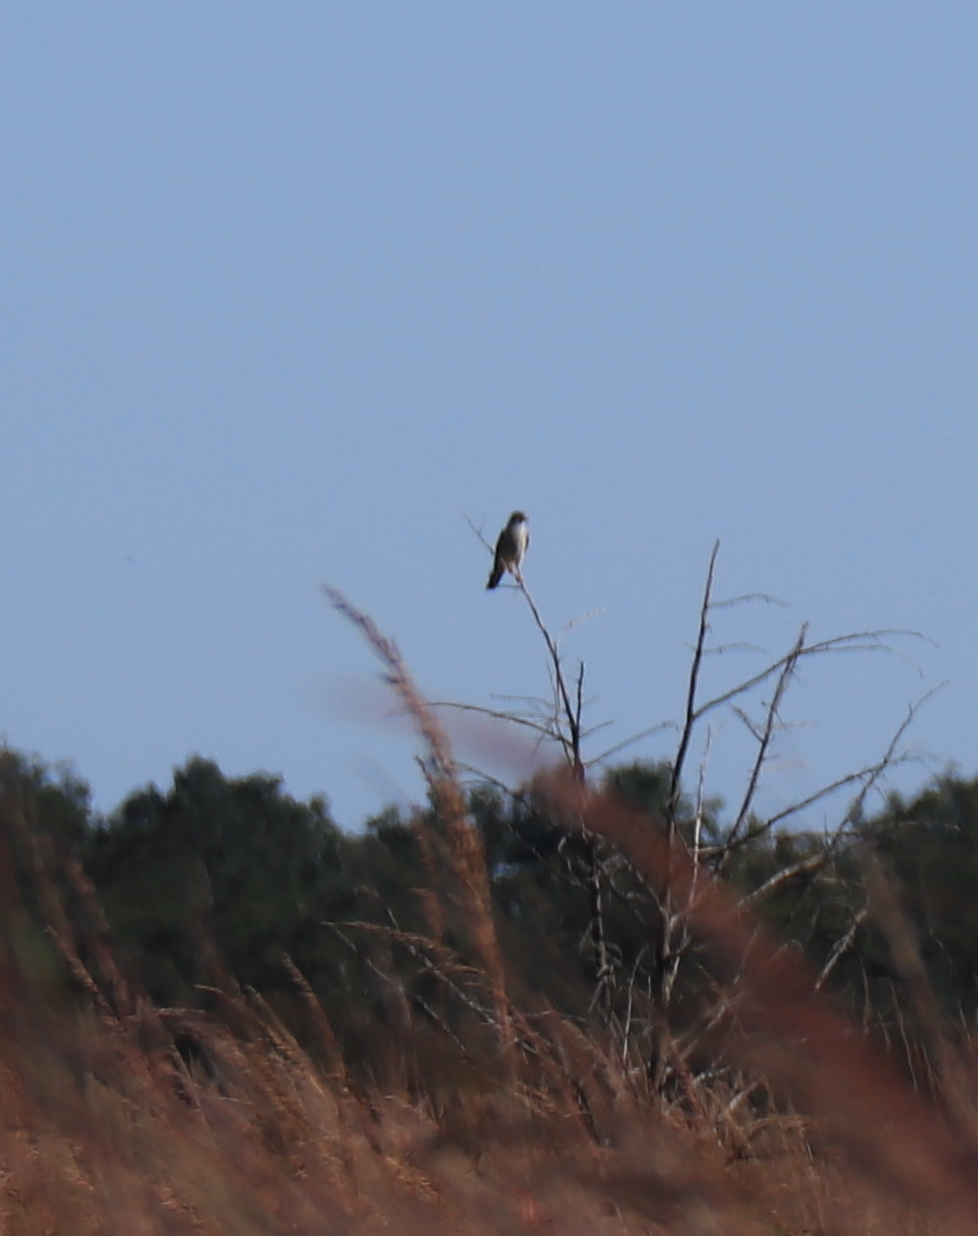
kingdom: Animalia
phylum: Chordata
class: Aves
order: Falconiformes
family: Falconidae
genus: Falco
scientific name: Falco sparverius
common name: American kestrel
